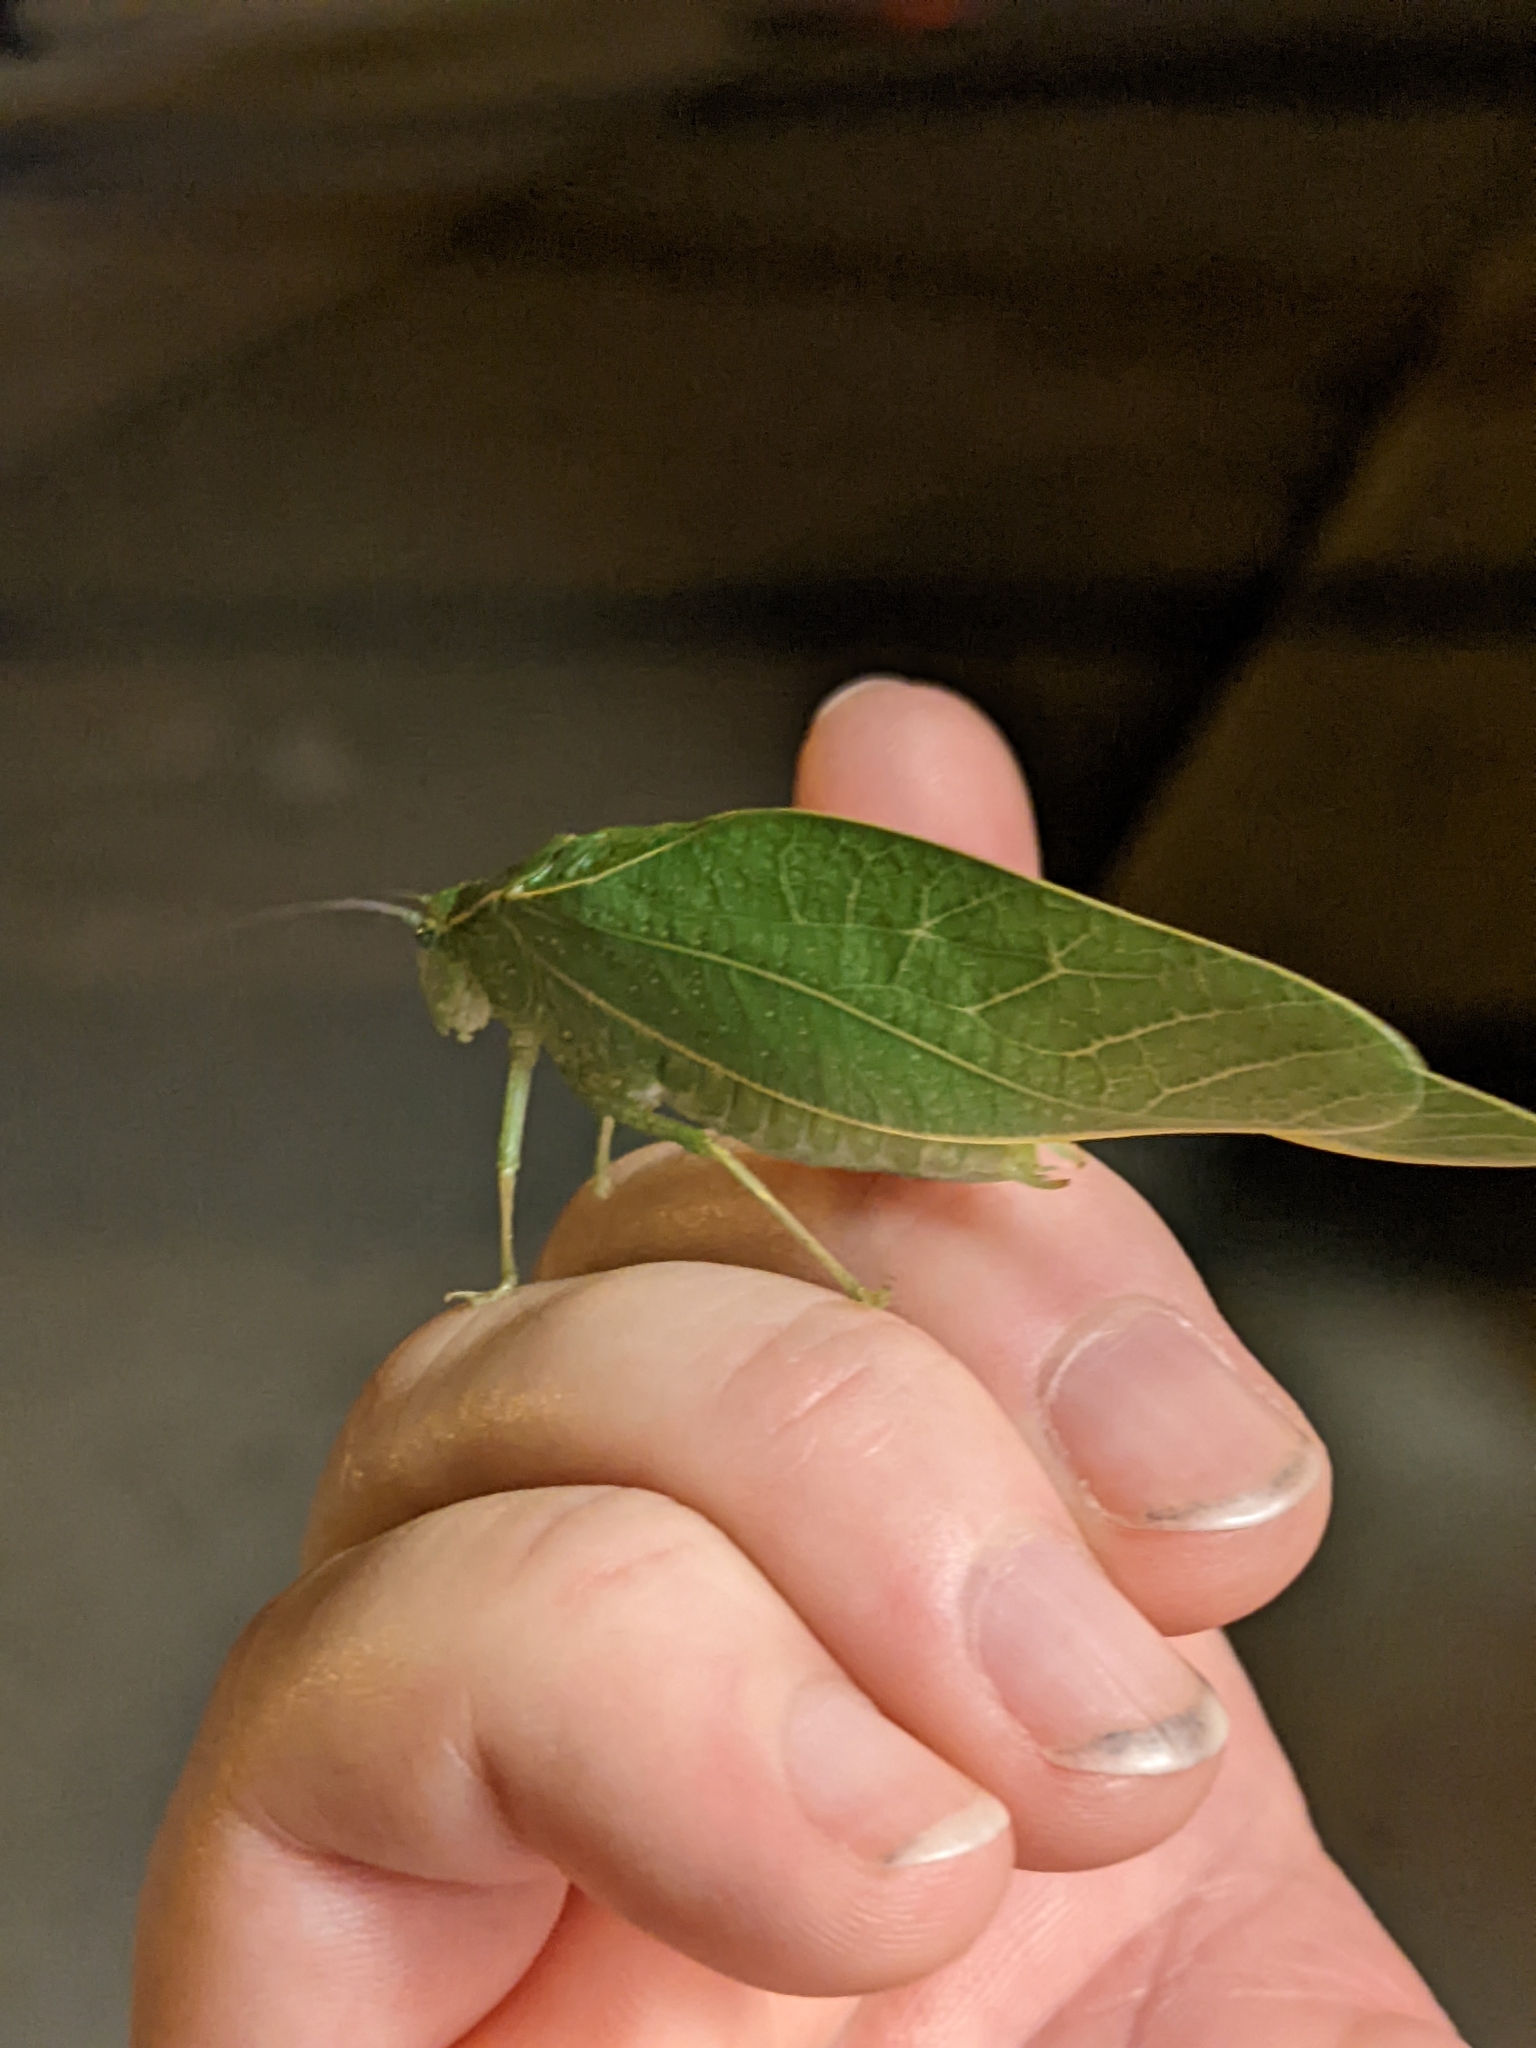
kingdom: Animalia
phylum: Arthropoda
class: Insecta
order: Orthoptera
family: Tettigoniidae
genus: Microcentrum
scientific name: Microcentrum rhombifolium
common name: Broad-winged katydid
